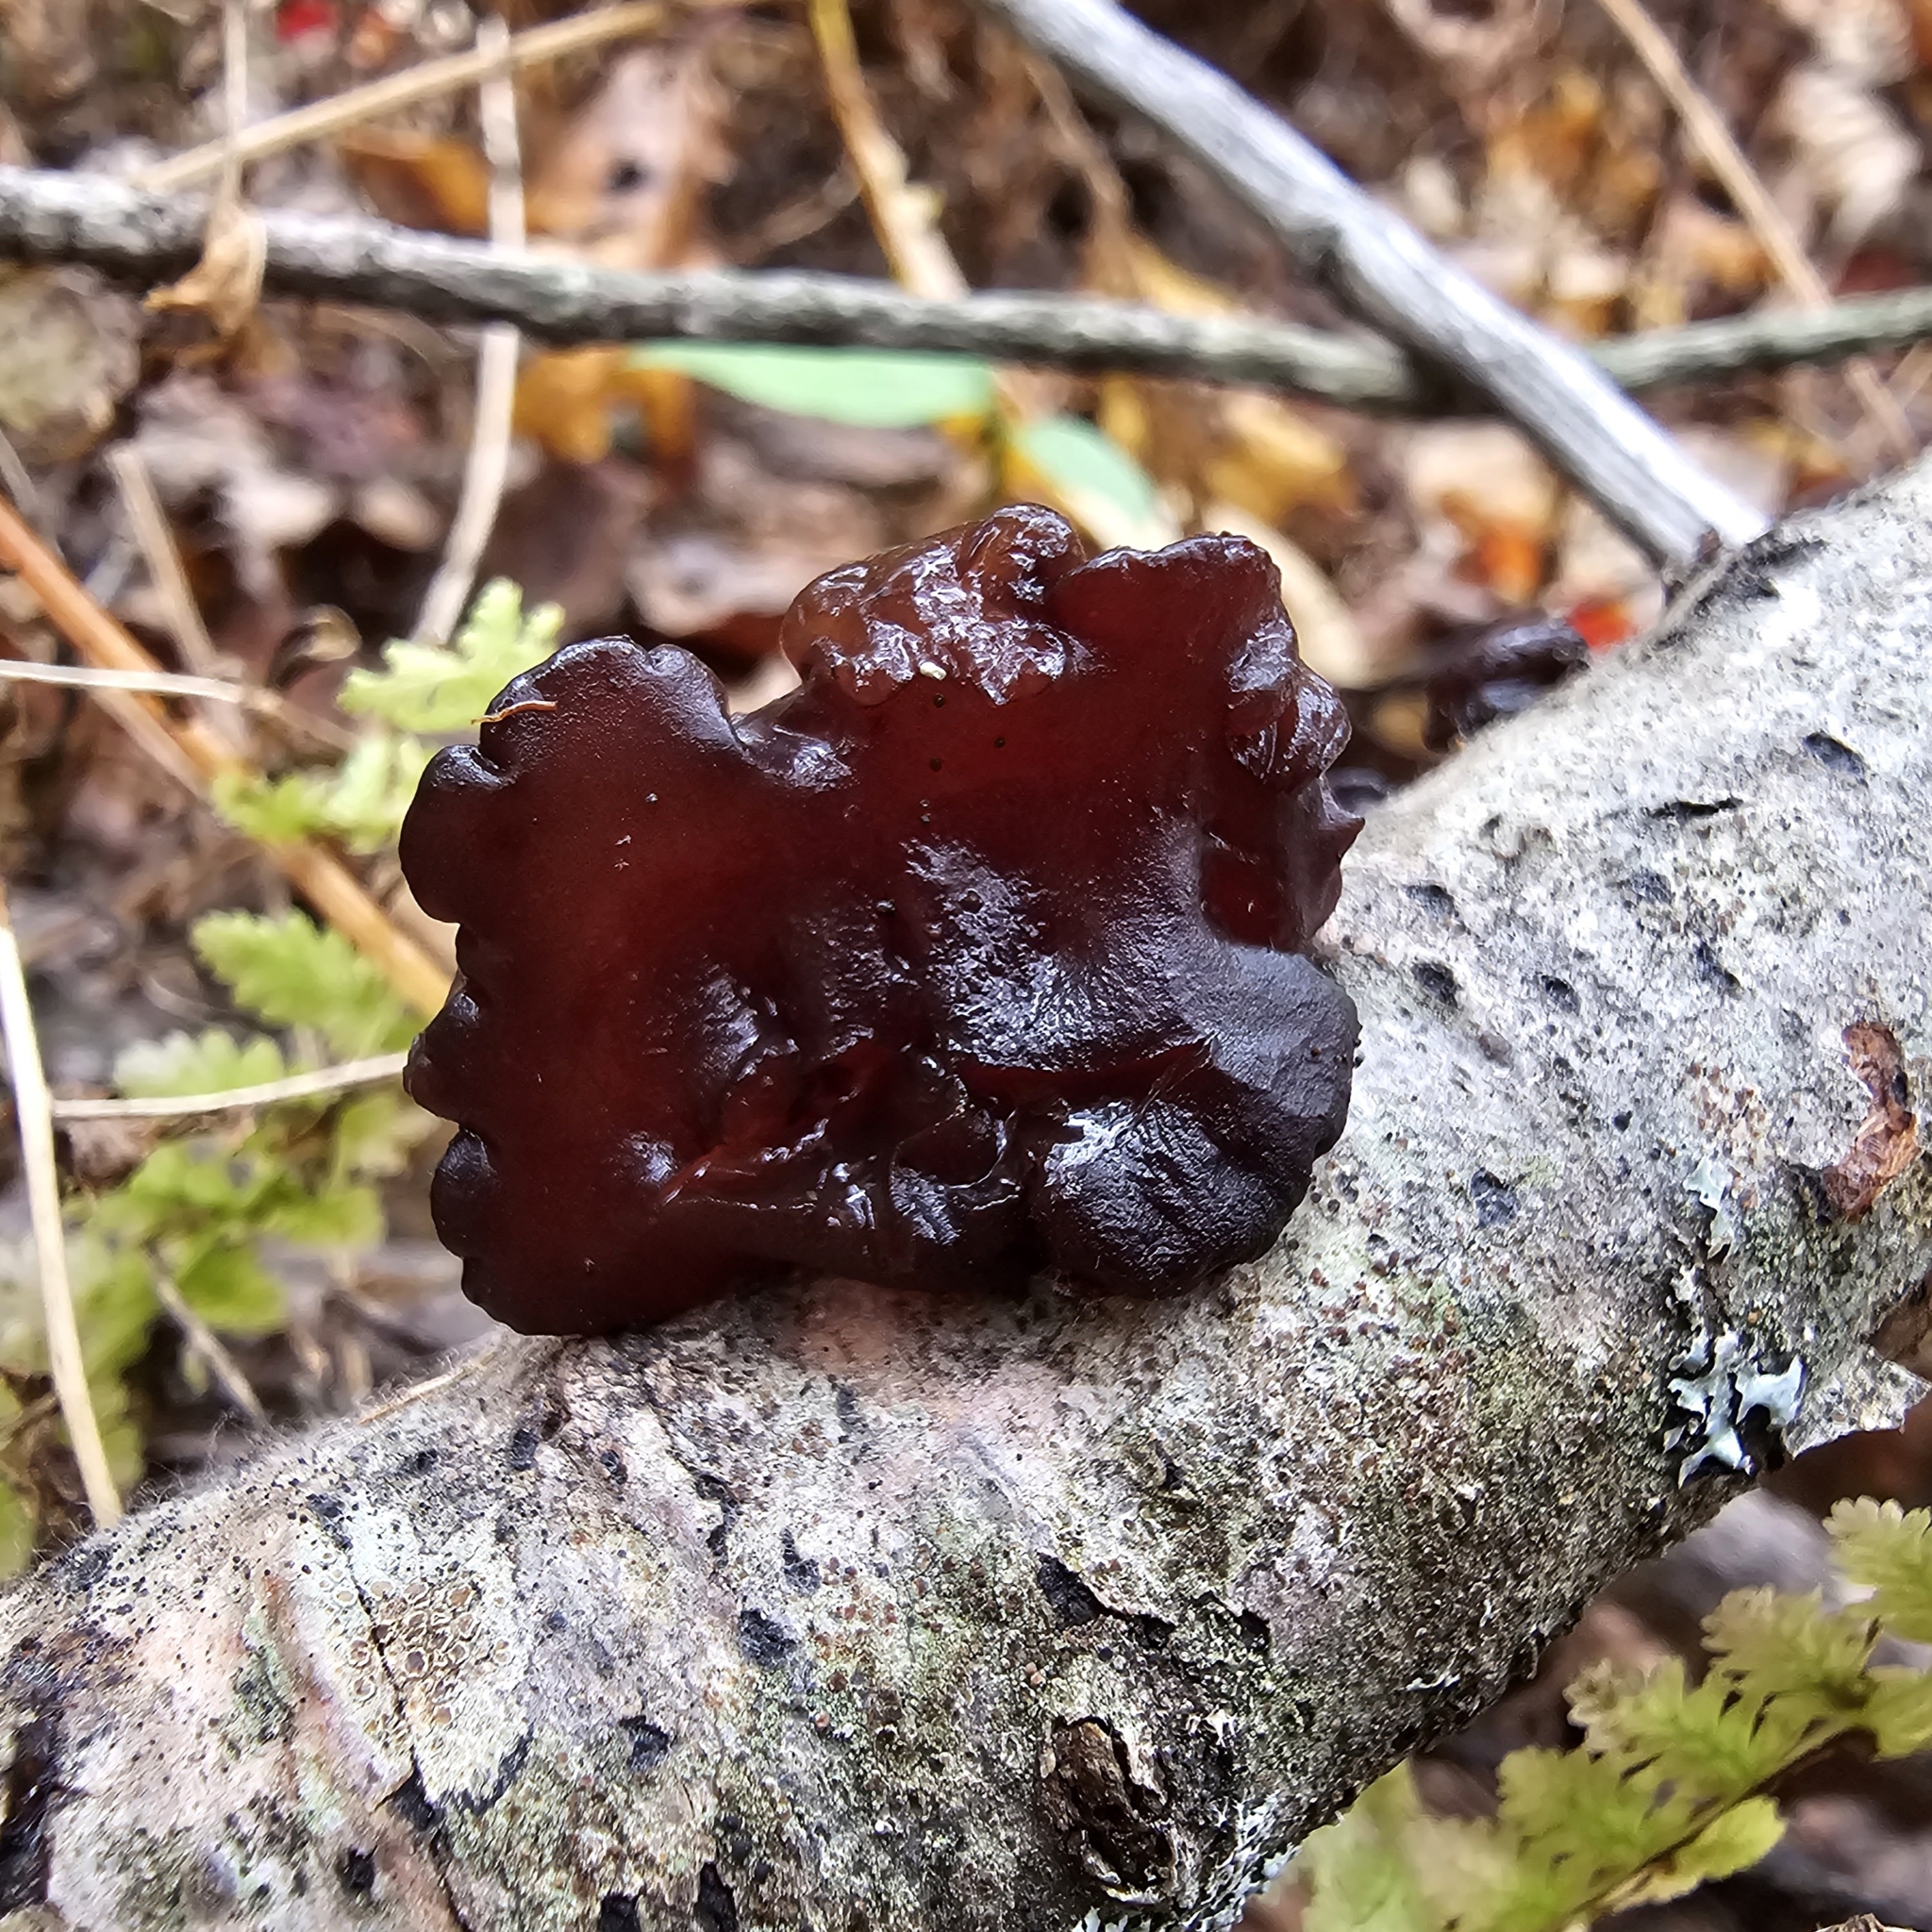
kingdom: Fungi
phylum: Basidiomycota
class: Agaricomycetes
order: Auriculariales
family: Auriculariaceae
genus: Exidia
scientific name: Exidia recisa
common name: Amber jelly
